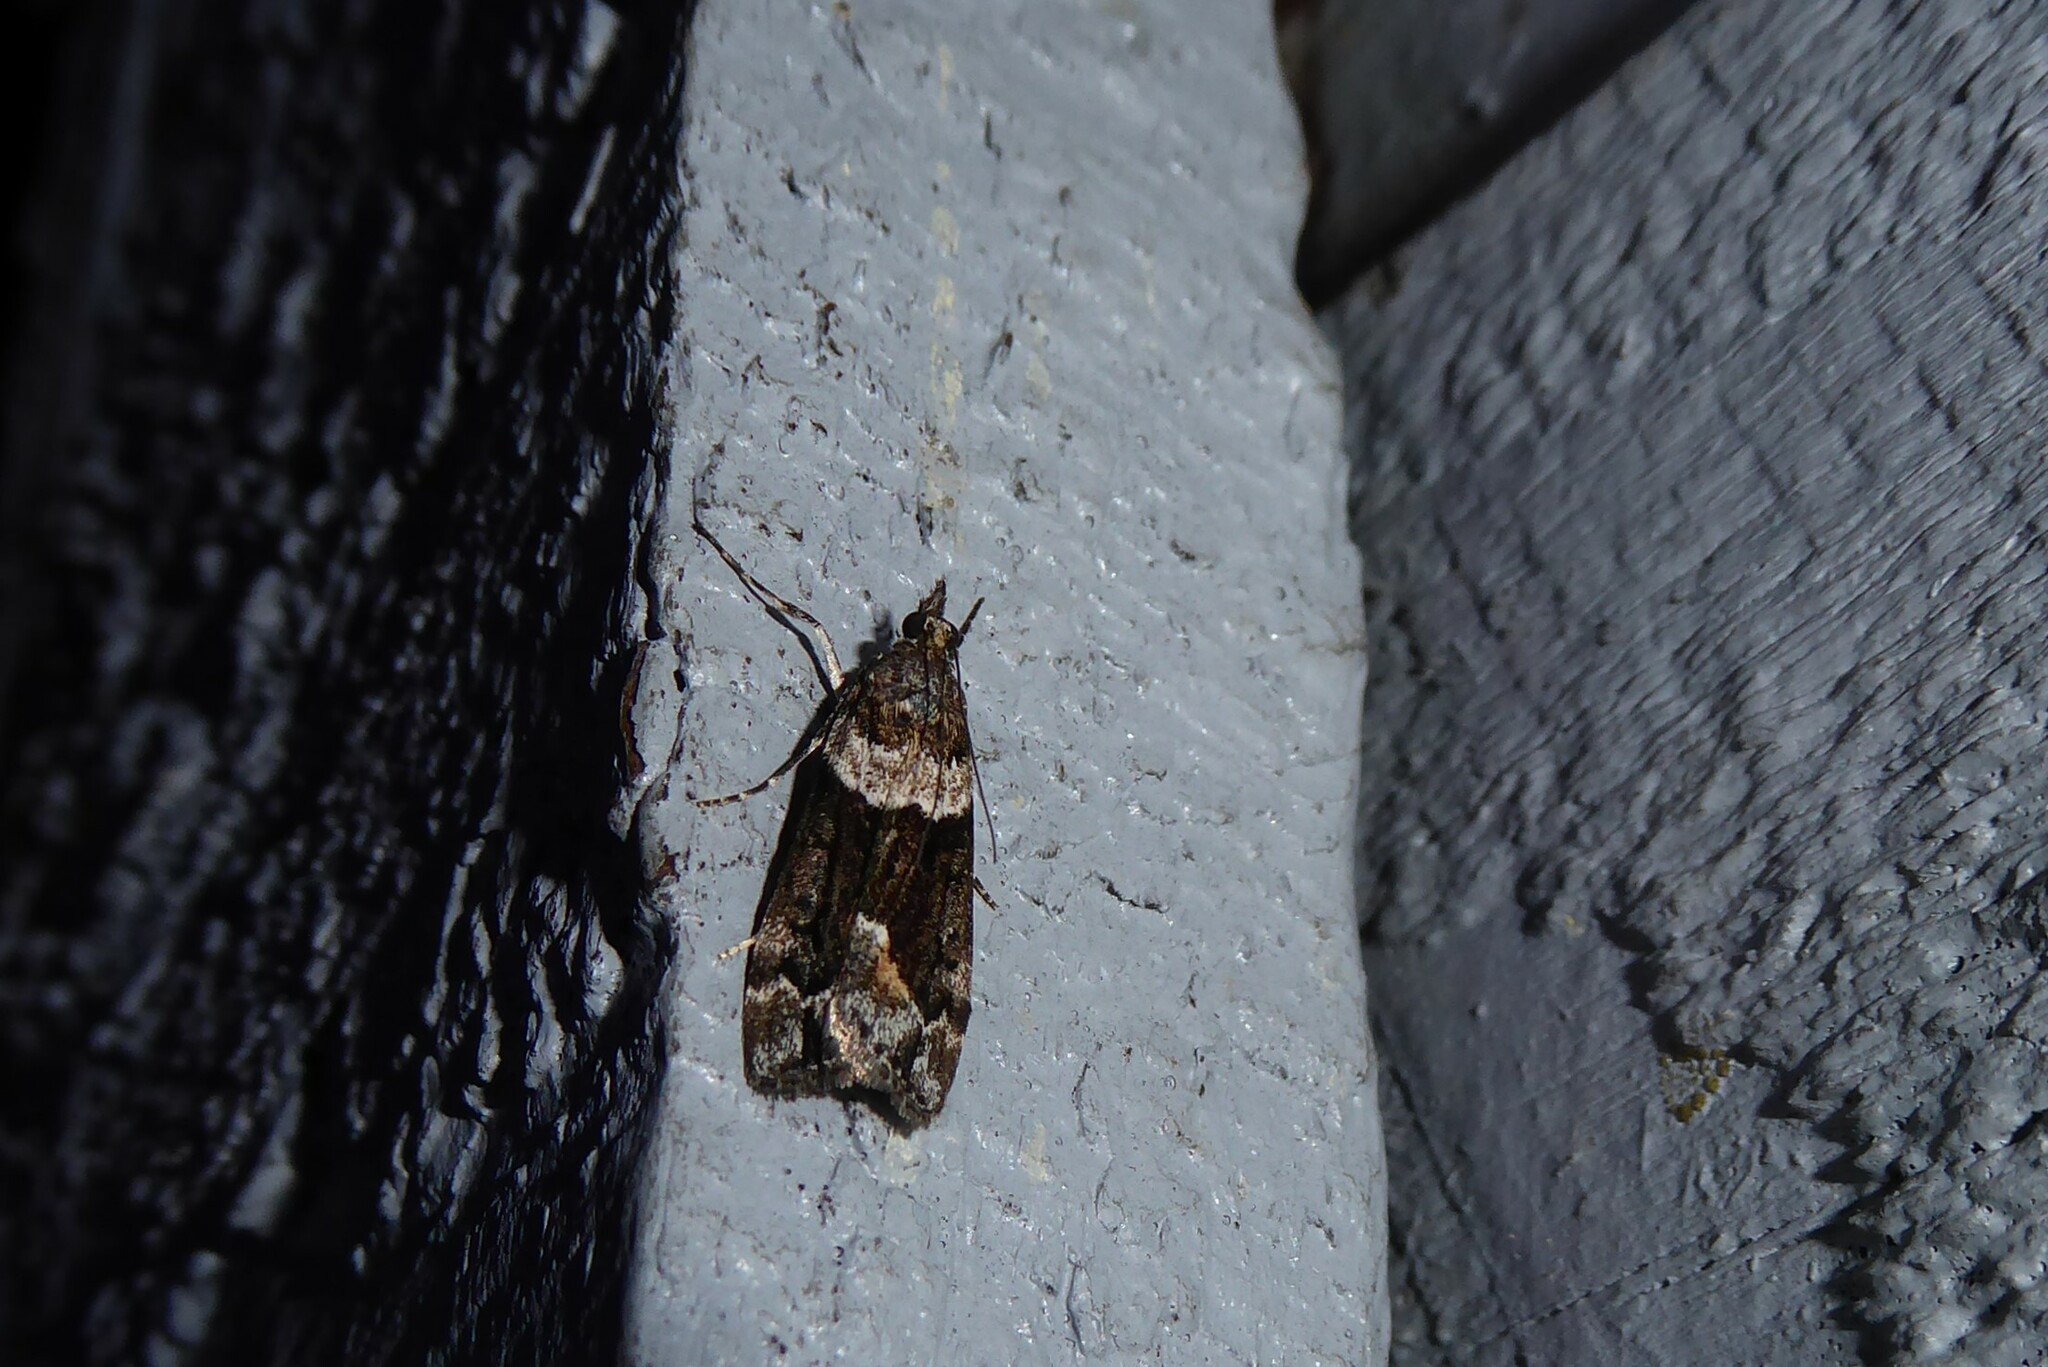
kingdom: Animalia
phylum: Arthropoda
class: Insecta
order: Lepidoptera
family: Crambidae
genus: Eudonia
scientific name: Eudonia submarginalis
